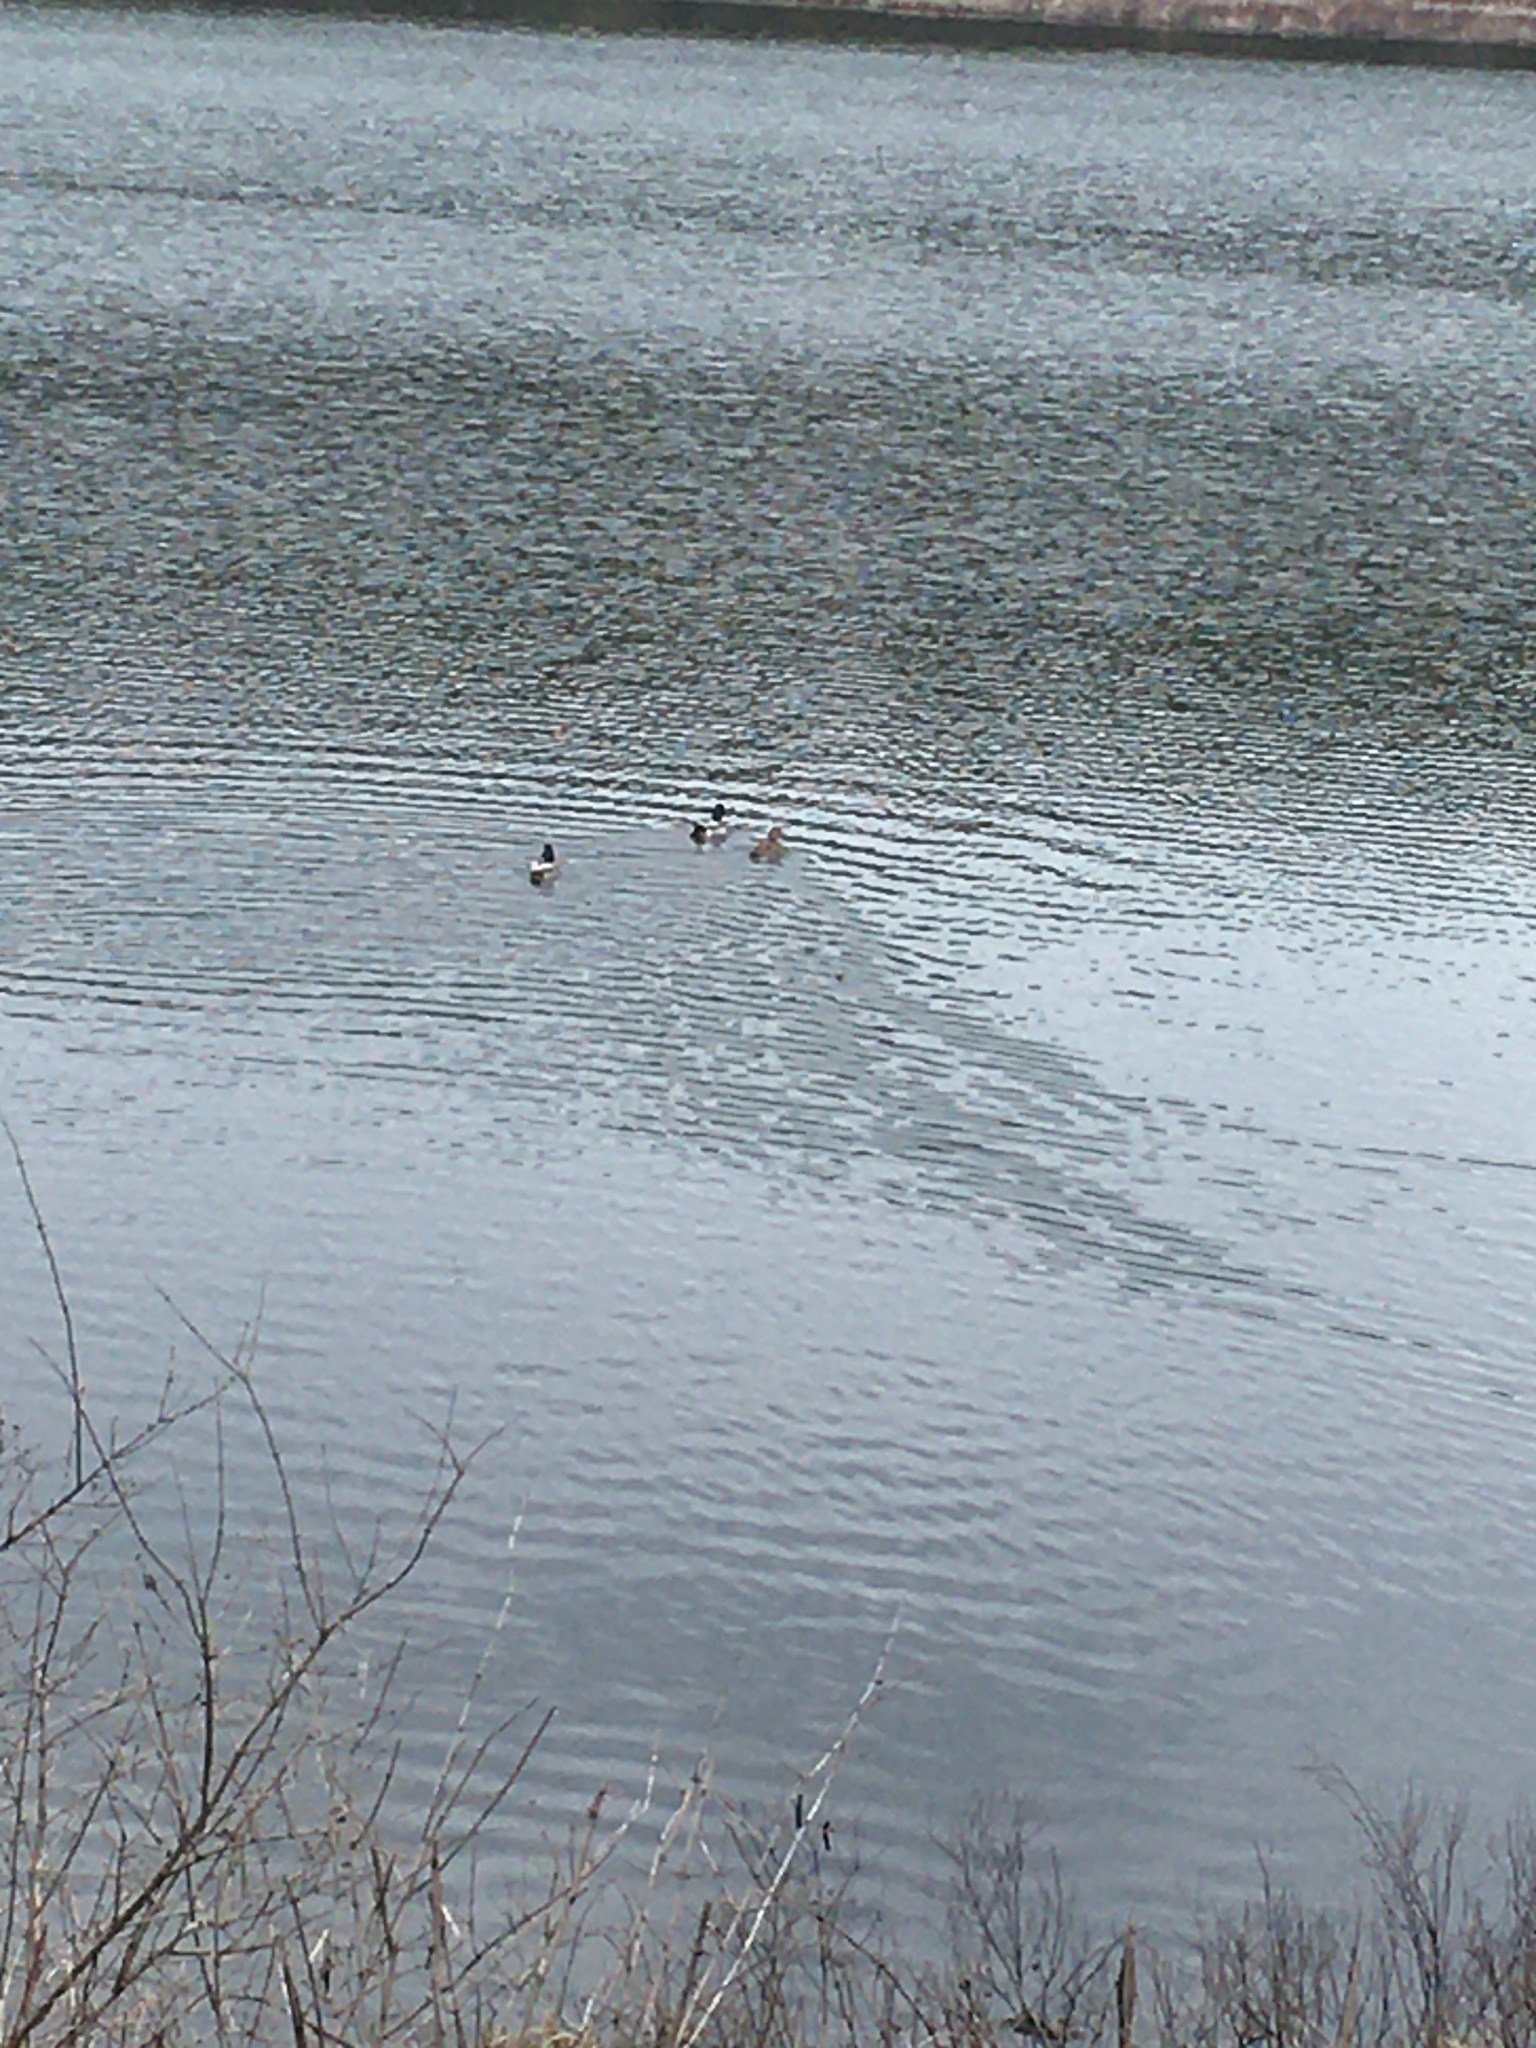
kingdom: Animalia
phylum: Chordata
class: Aves
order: Anseriformes
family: Anatidae
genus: Anas
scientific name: Anas platyrhynchos
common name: Mallard
